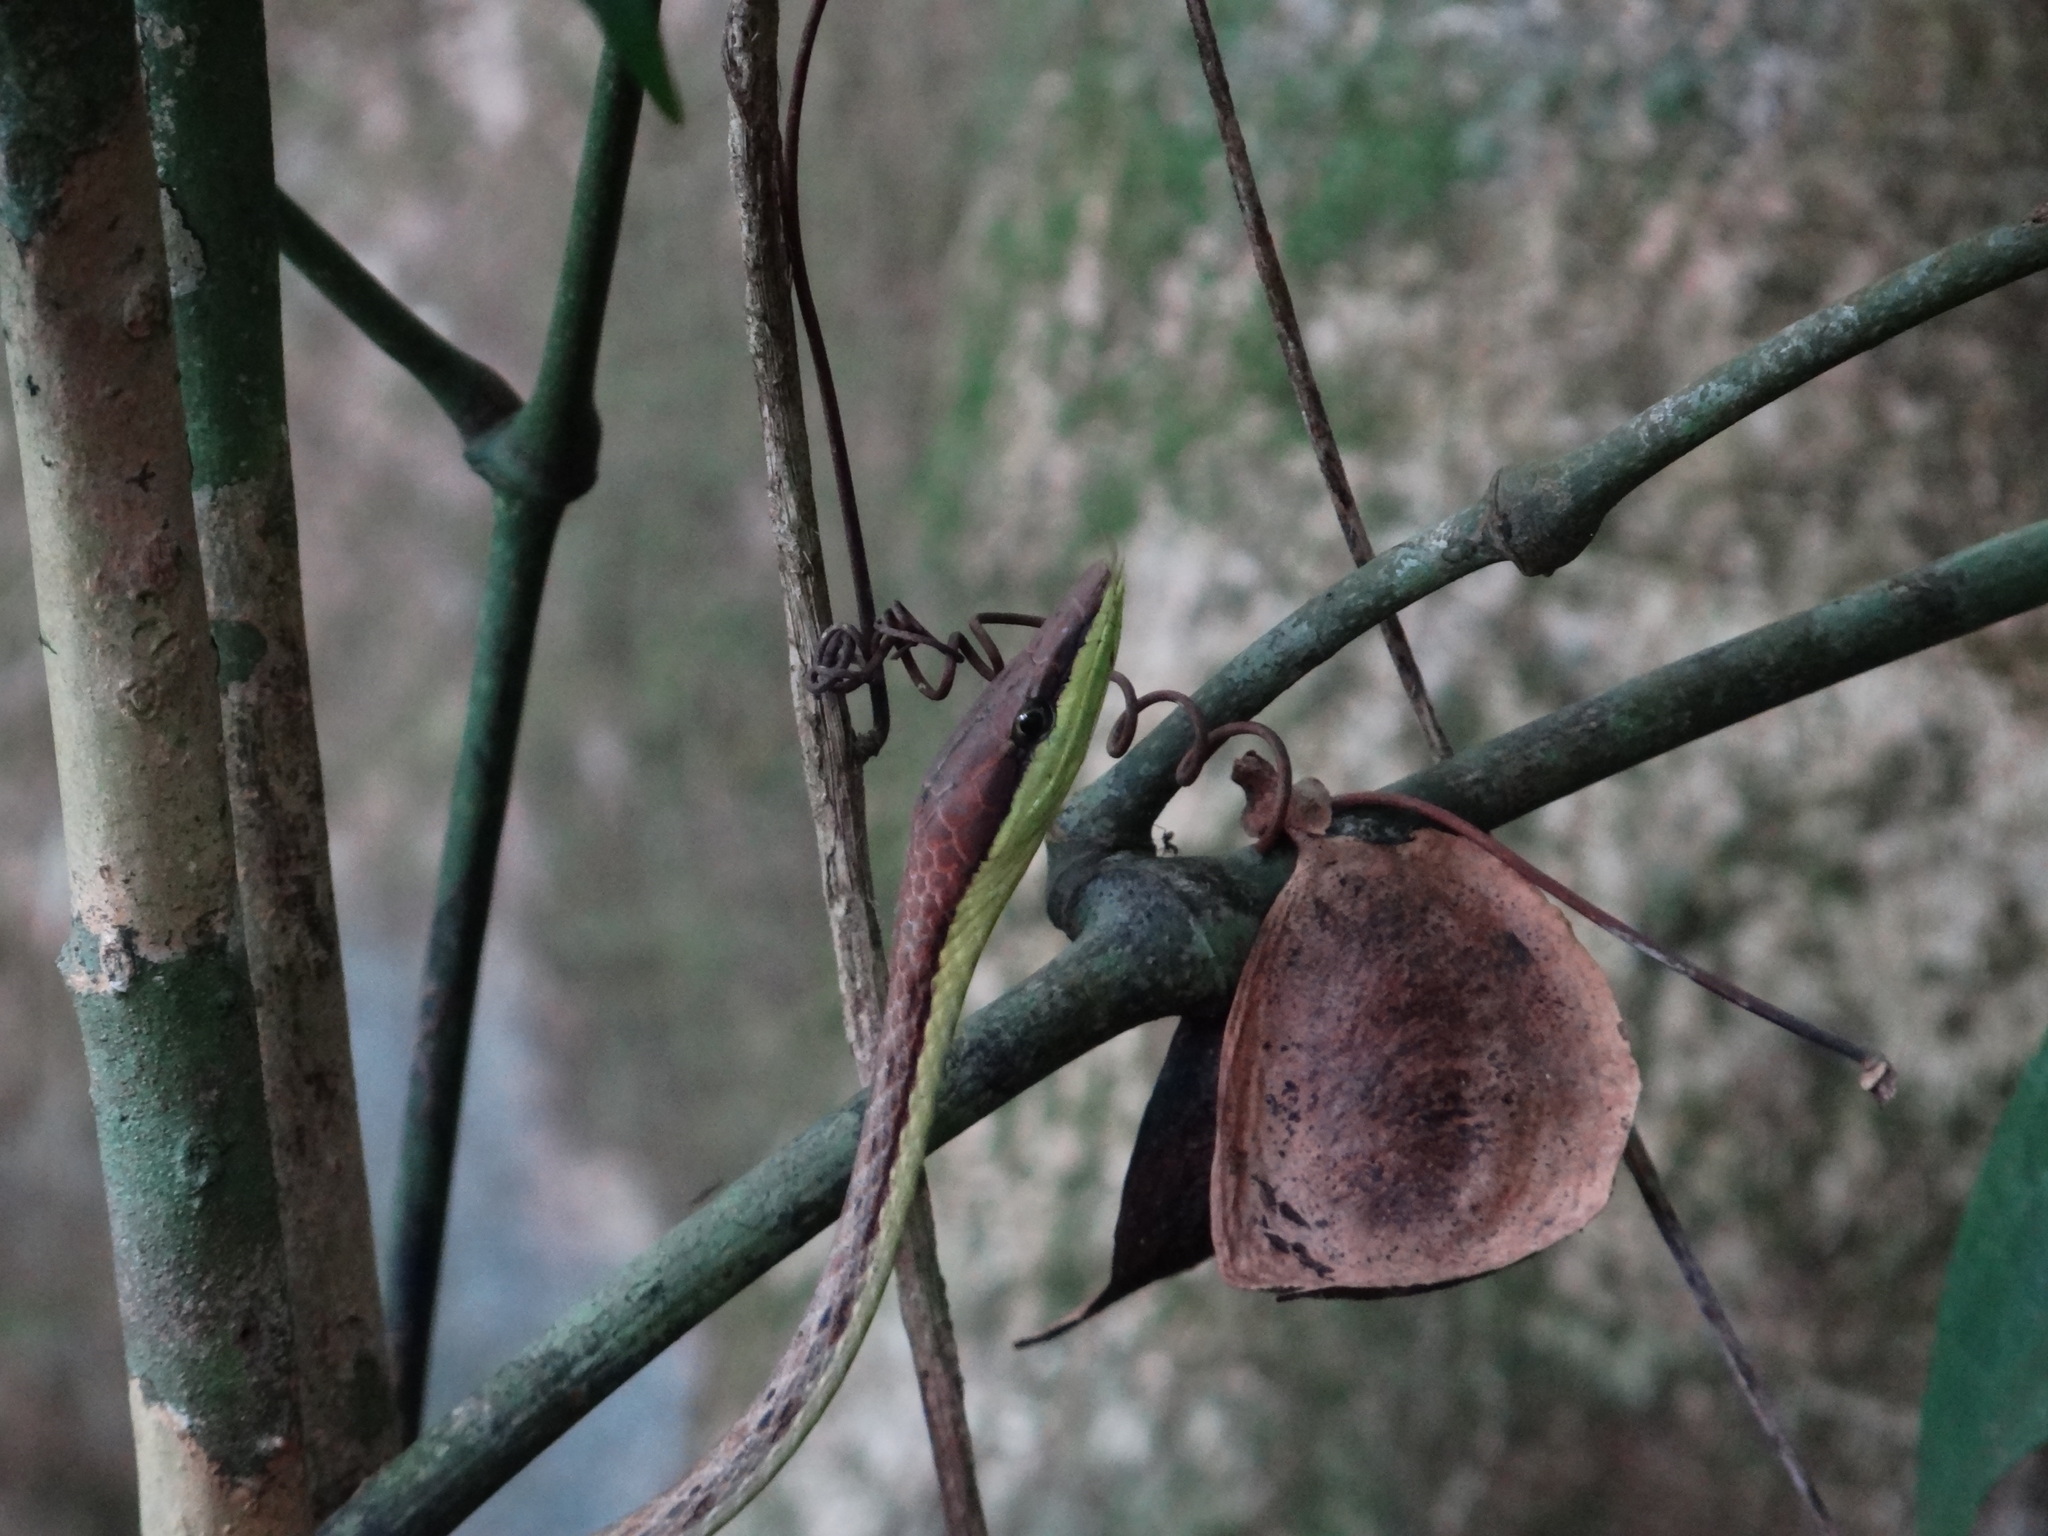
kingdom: Animalia
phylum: Chordata
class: Squamata
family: Colubridae
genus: Oxybelis
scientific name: Oxybelis koehleri
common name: Köhler’s vine snake
